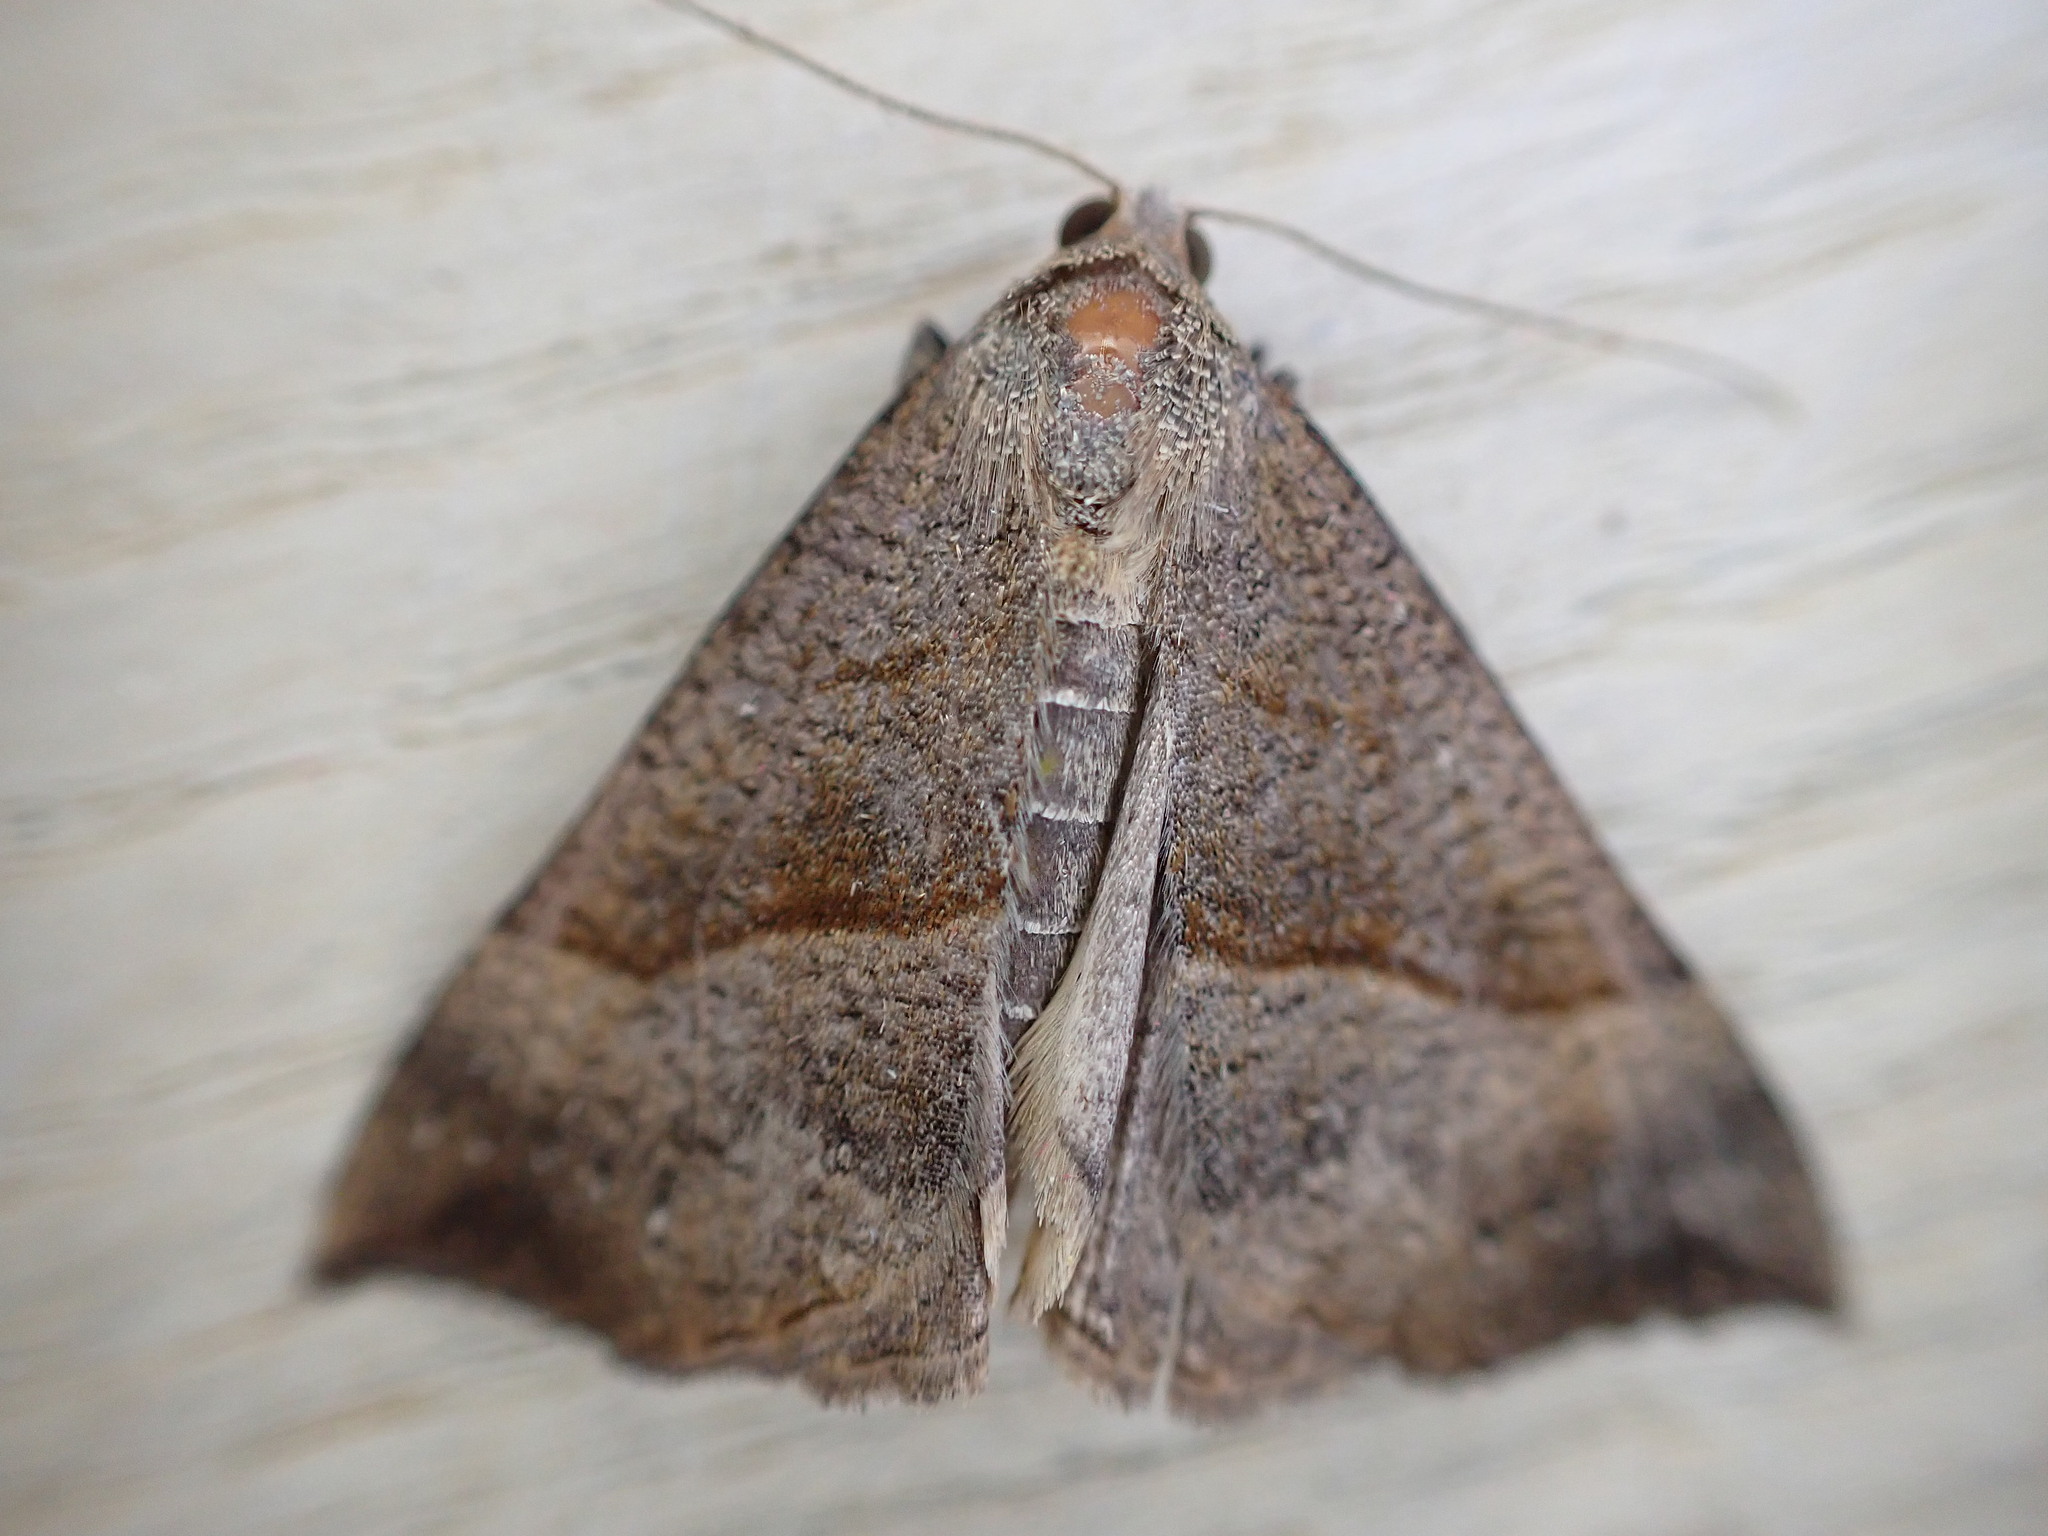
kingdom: Animalia
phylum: Arthropoda
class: Insecta
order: Lepidoptera
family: Erebidae
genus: Hypena
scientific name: Hypena proboscidalis
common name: Snout
